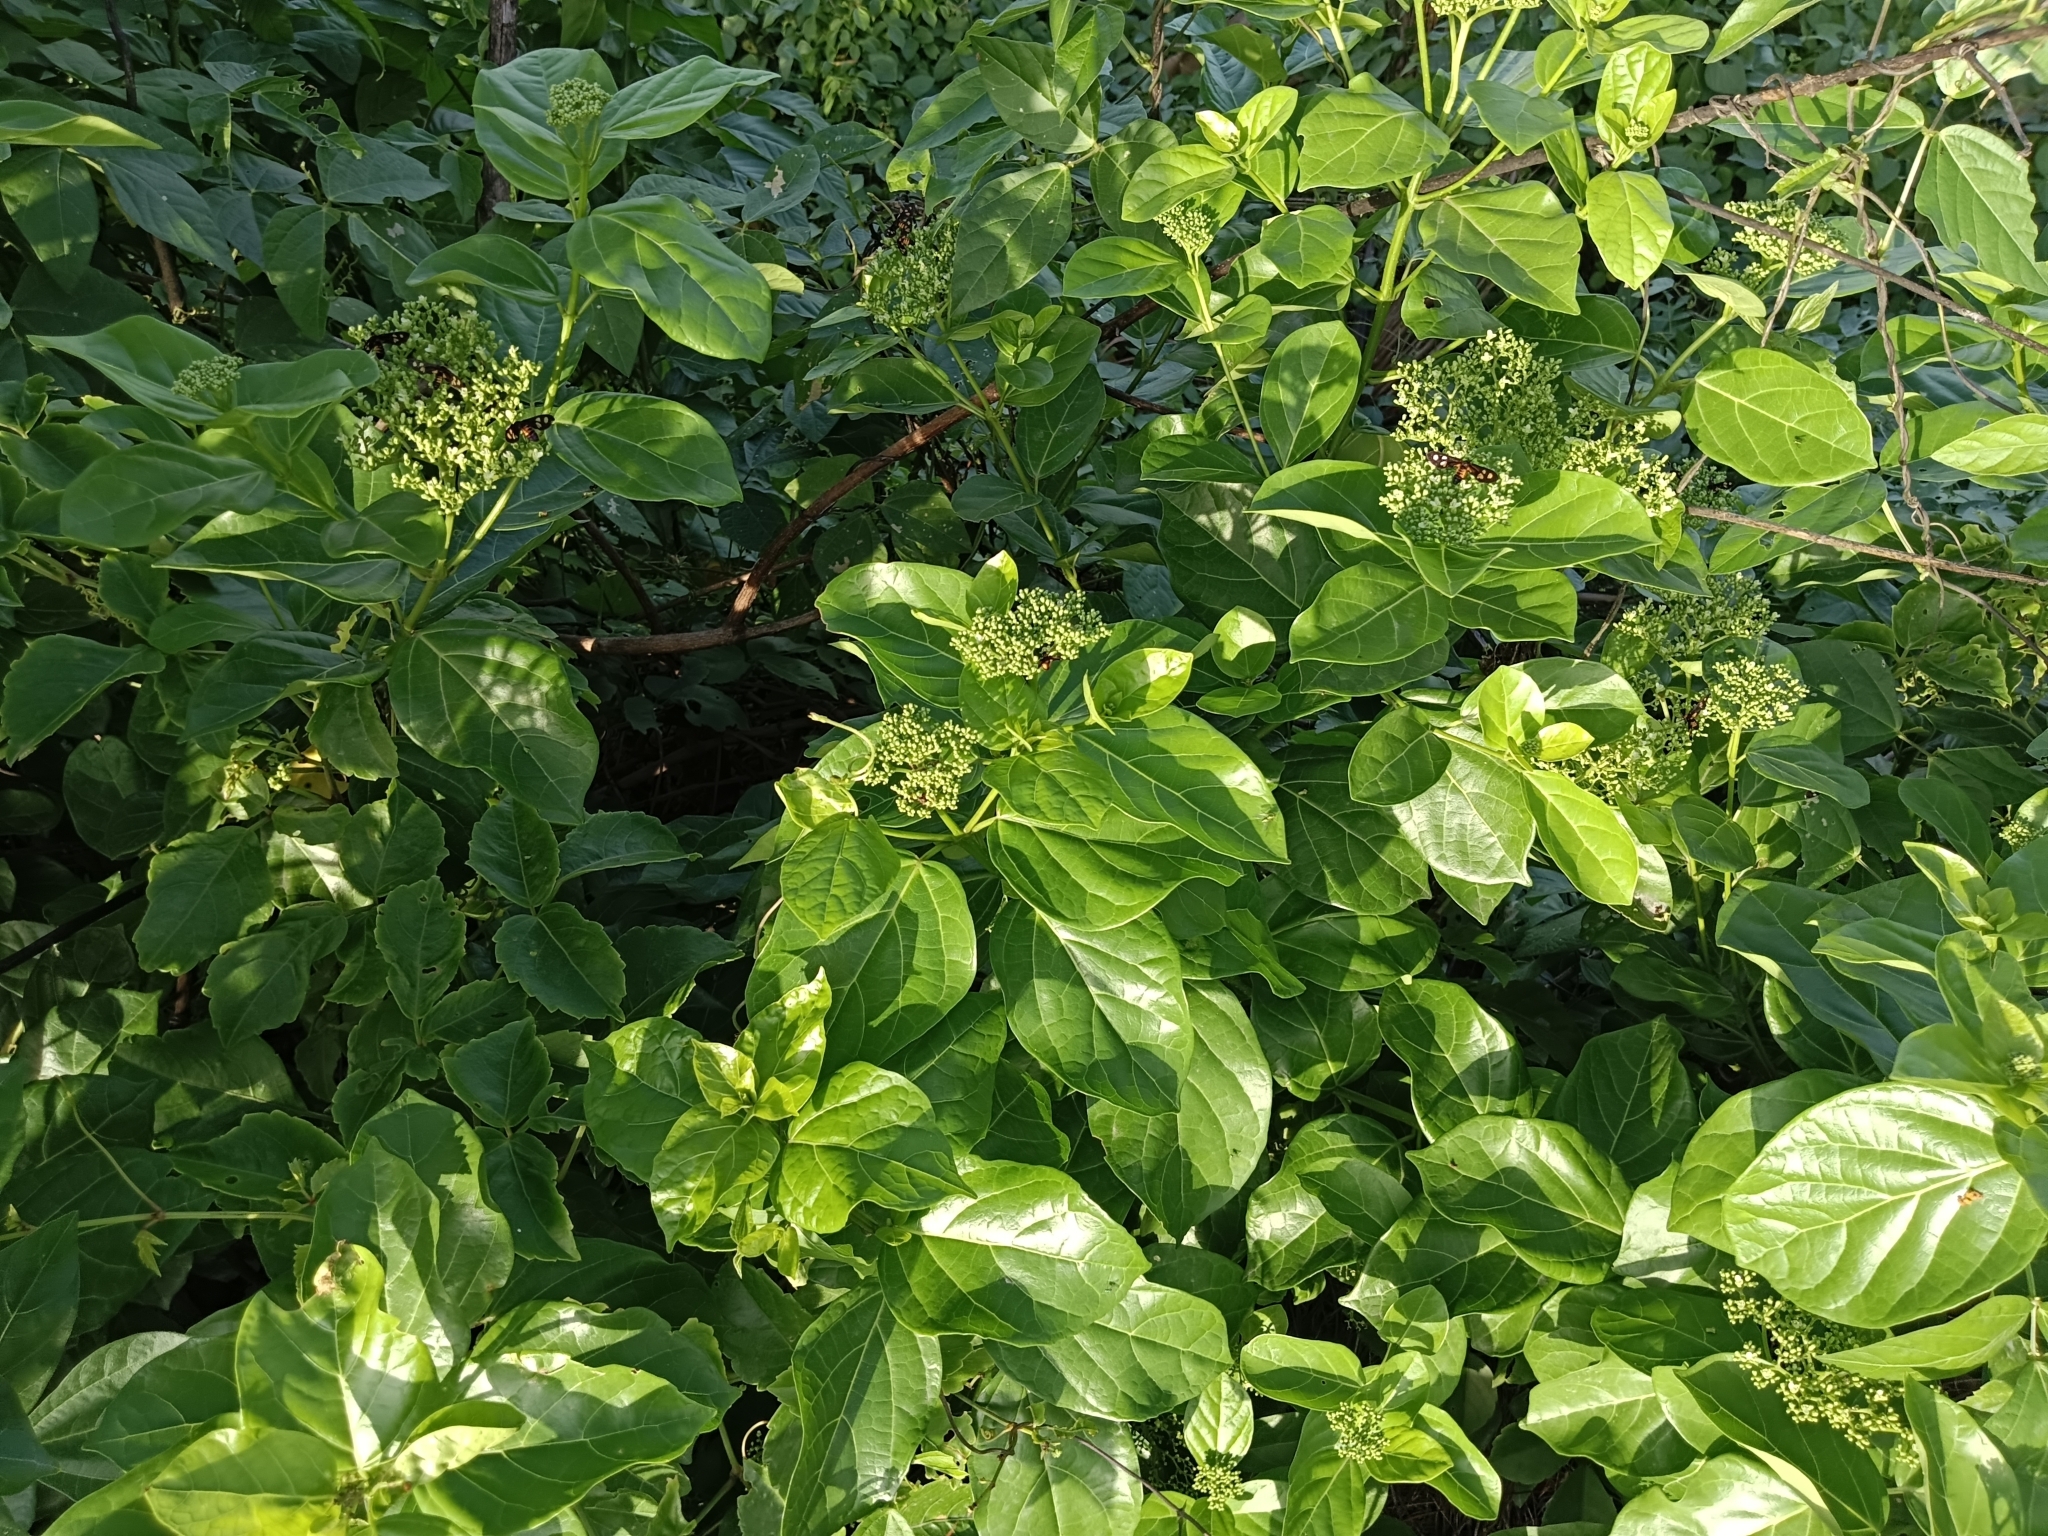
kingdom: Plantae
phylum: Tracheophyta
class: Magnoliopsida
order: Lamiales
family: Lamiaceae
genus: Premna
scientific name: Premna serratifolia
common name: Bastard guelder
